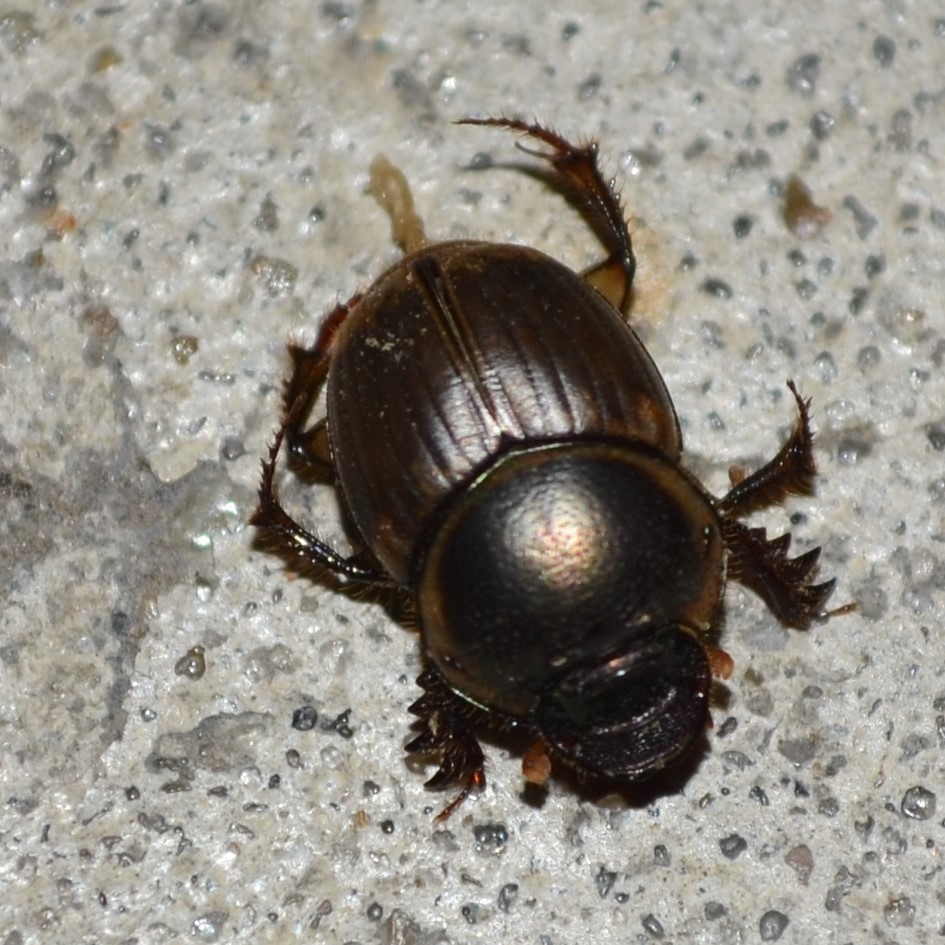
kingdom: Animalia
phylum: Arthropoda
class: Insecta
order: Coleoptera
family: Scarabaeidae
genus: Digitonthophagus
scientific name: Digitonthophagus gazella
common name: Brown dung beetle
